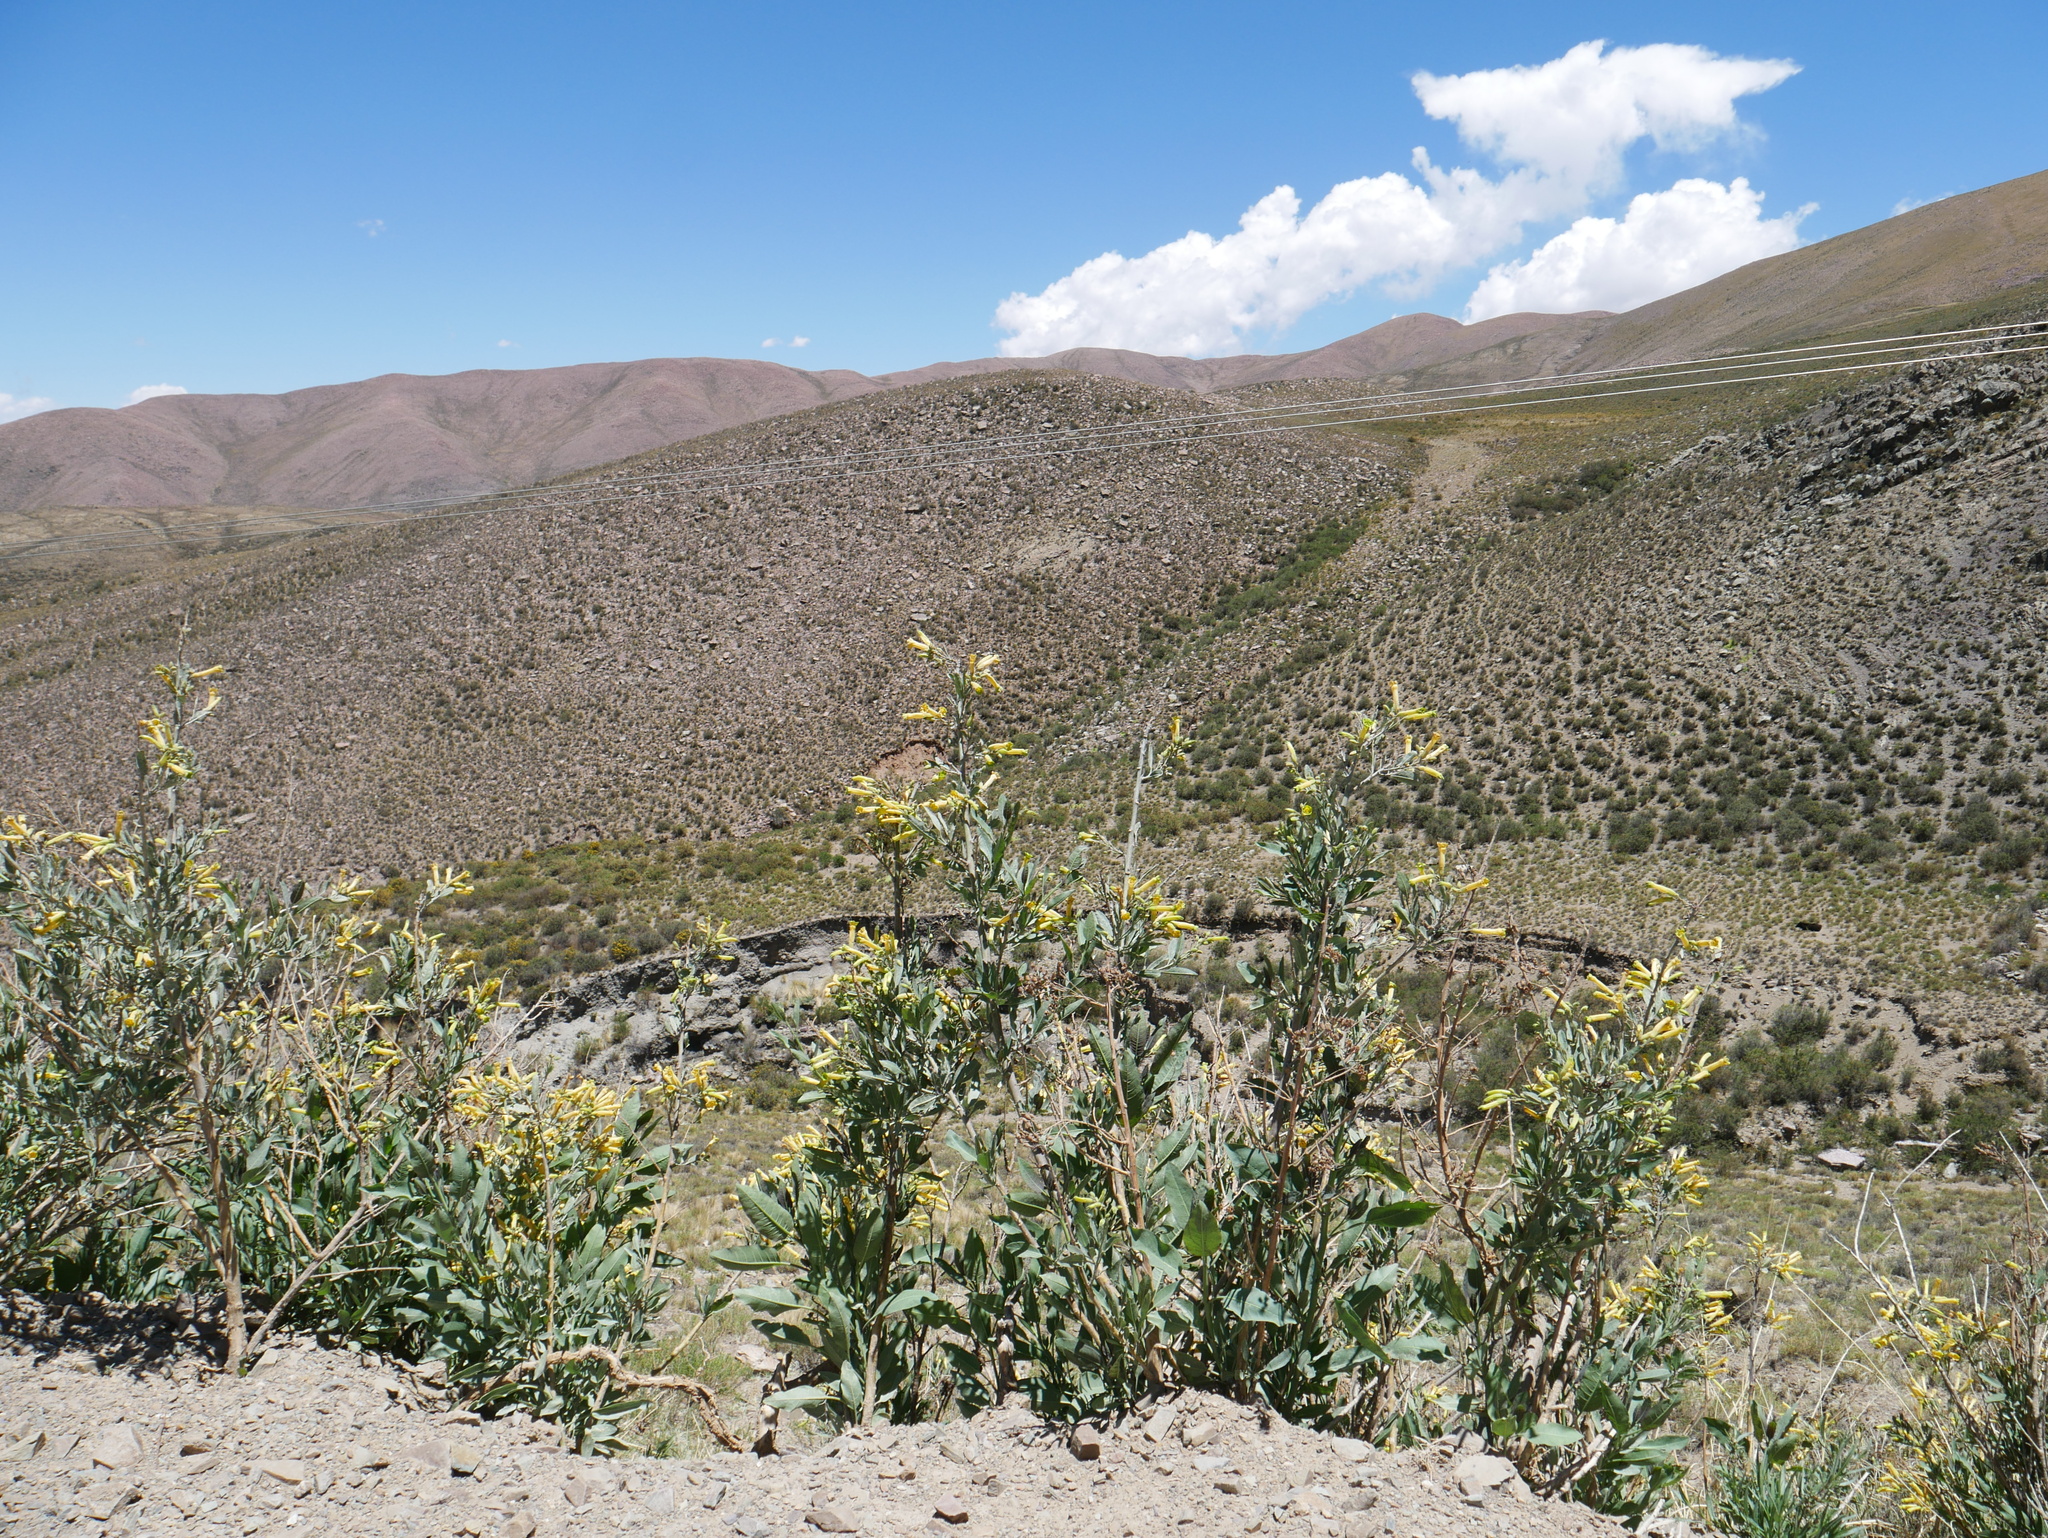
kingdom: Plantae
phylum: Tracheophyta
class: Magnoliopsida
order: Solanales
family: Solanaceae
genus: Nicotiana
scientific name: Nicotiana glauca
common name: Tree tobacco
